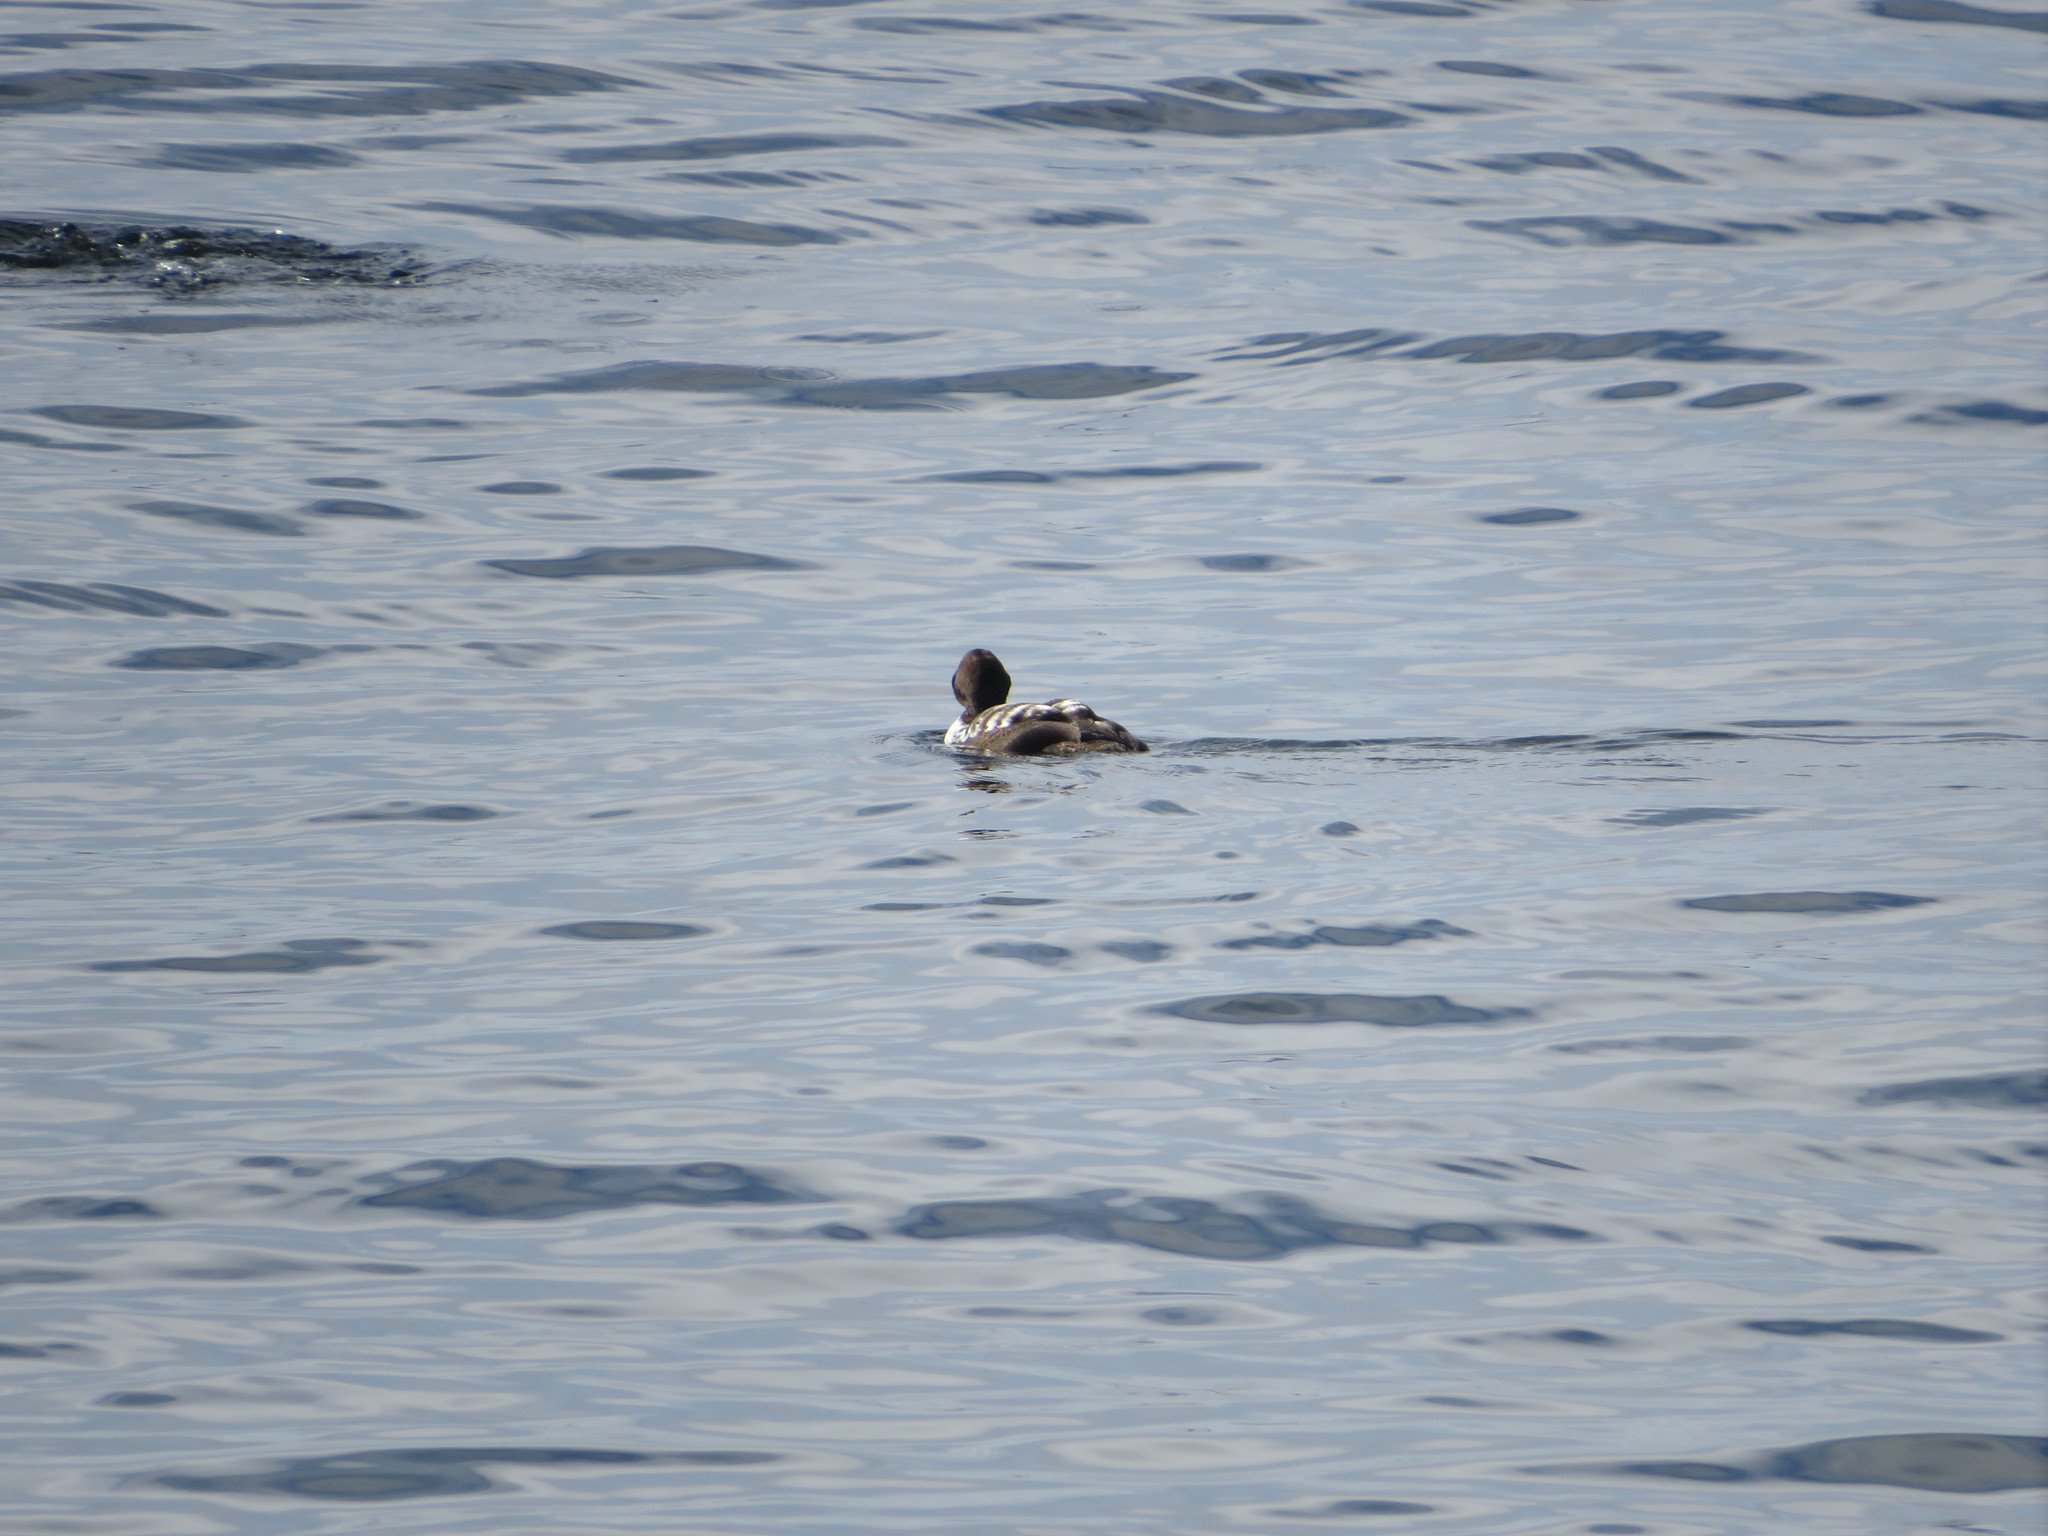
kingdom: Animalia
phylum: Chordata
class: Aves
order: Anseriformes
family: Anatidae
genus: Somateria
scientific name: Somateria mollissima
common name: Common eider
